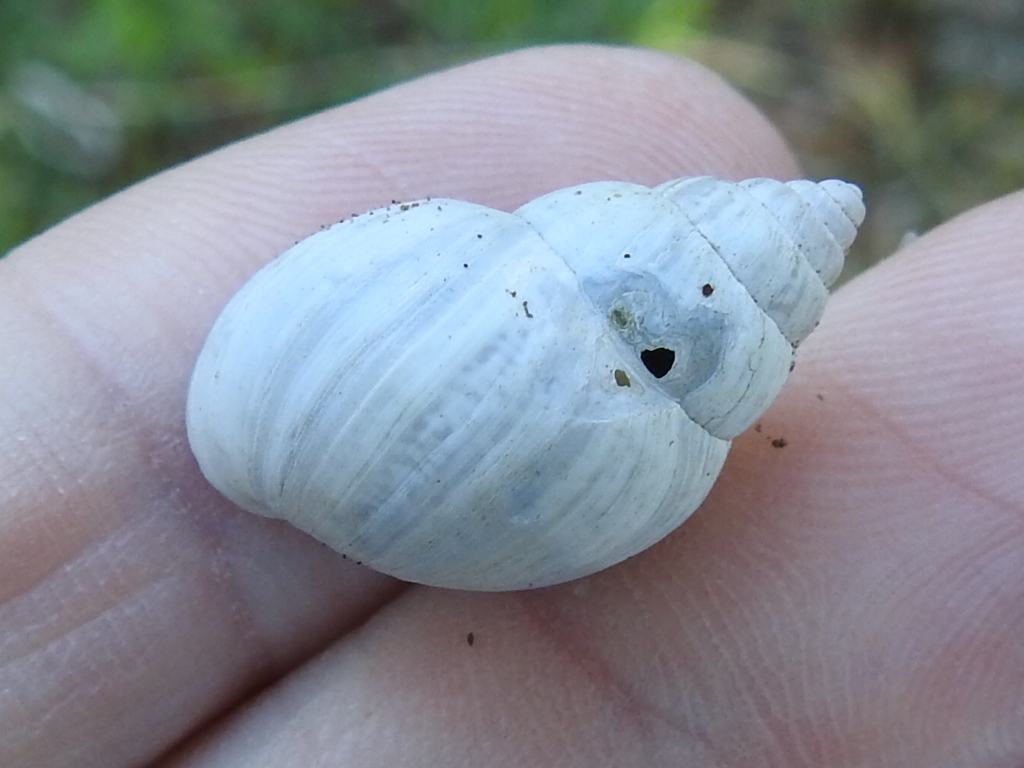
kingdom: Animalia
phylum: Mollusca
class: Gastropoda
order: Stylommatophora
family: Bulimulidae
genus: Rabdotus
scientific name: Rabdotus dealbatus
